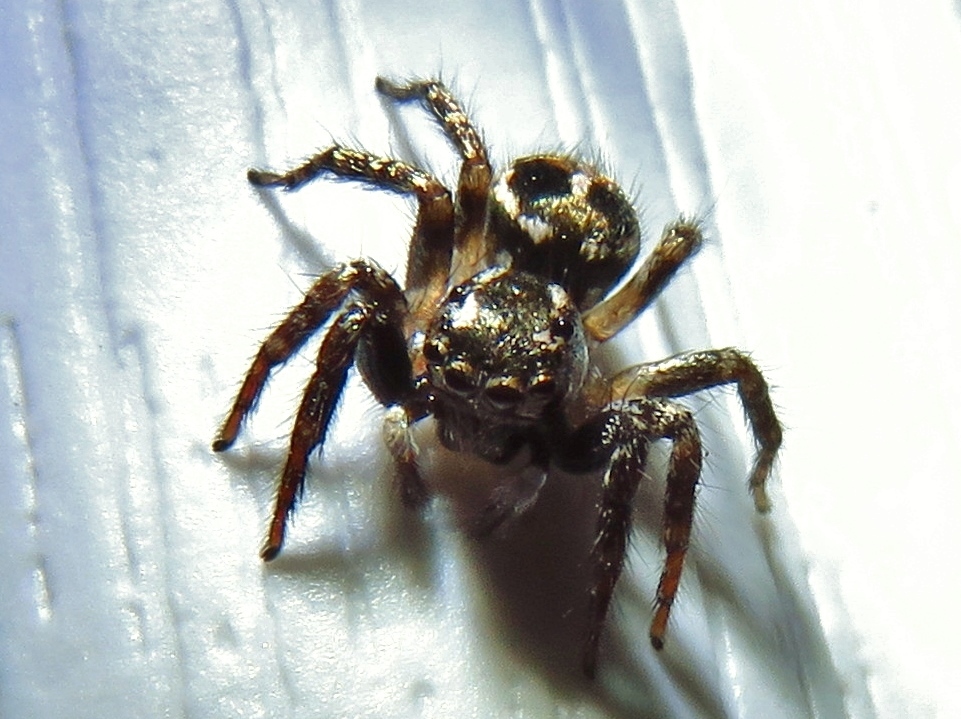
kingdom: Animalia
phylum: Arthropoda
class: Arachnida
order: Araneae
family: Salticidae
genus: Anasaitis
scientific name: Anasaitis canosa
